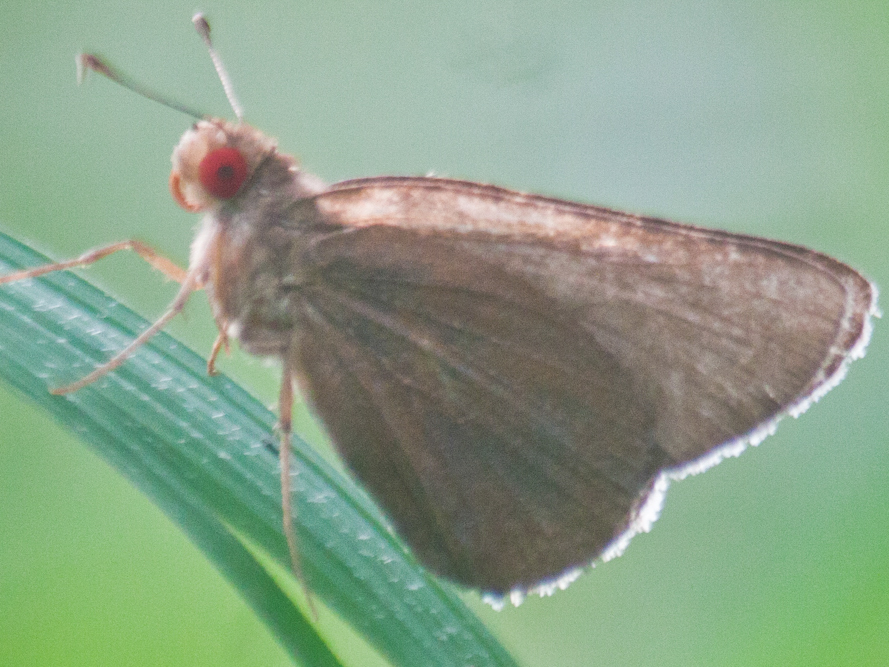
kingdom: Animalia
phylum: Arthropoda
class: Insecta
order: Lepidoptera
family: Hesperiidae
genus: Matapa
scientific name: Matapa aria
